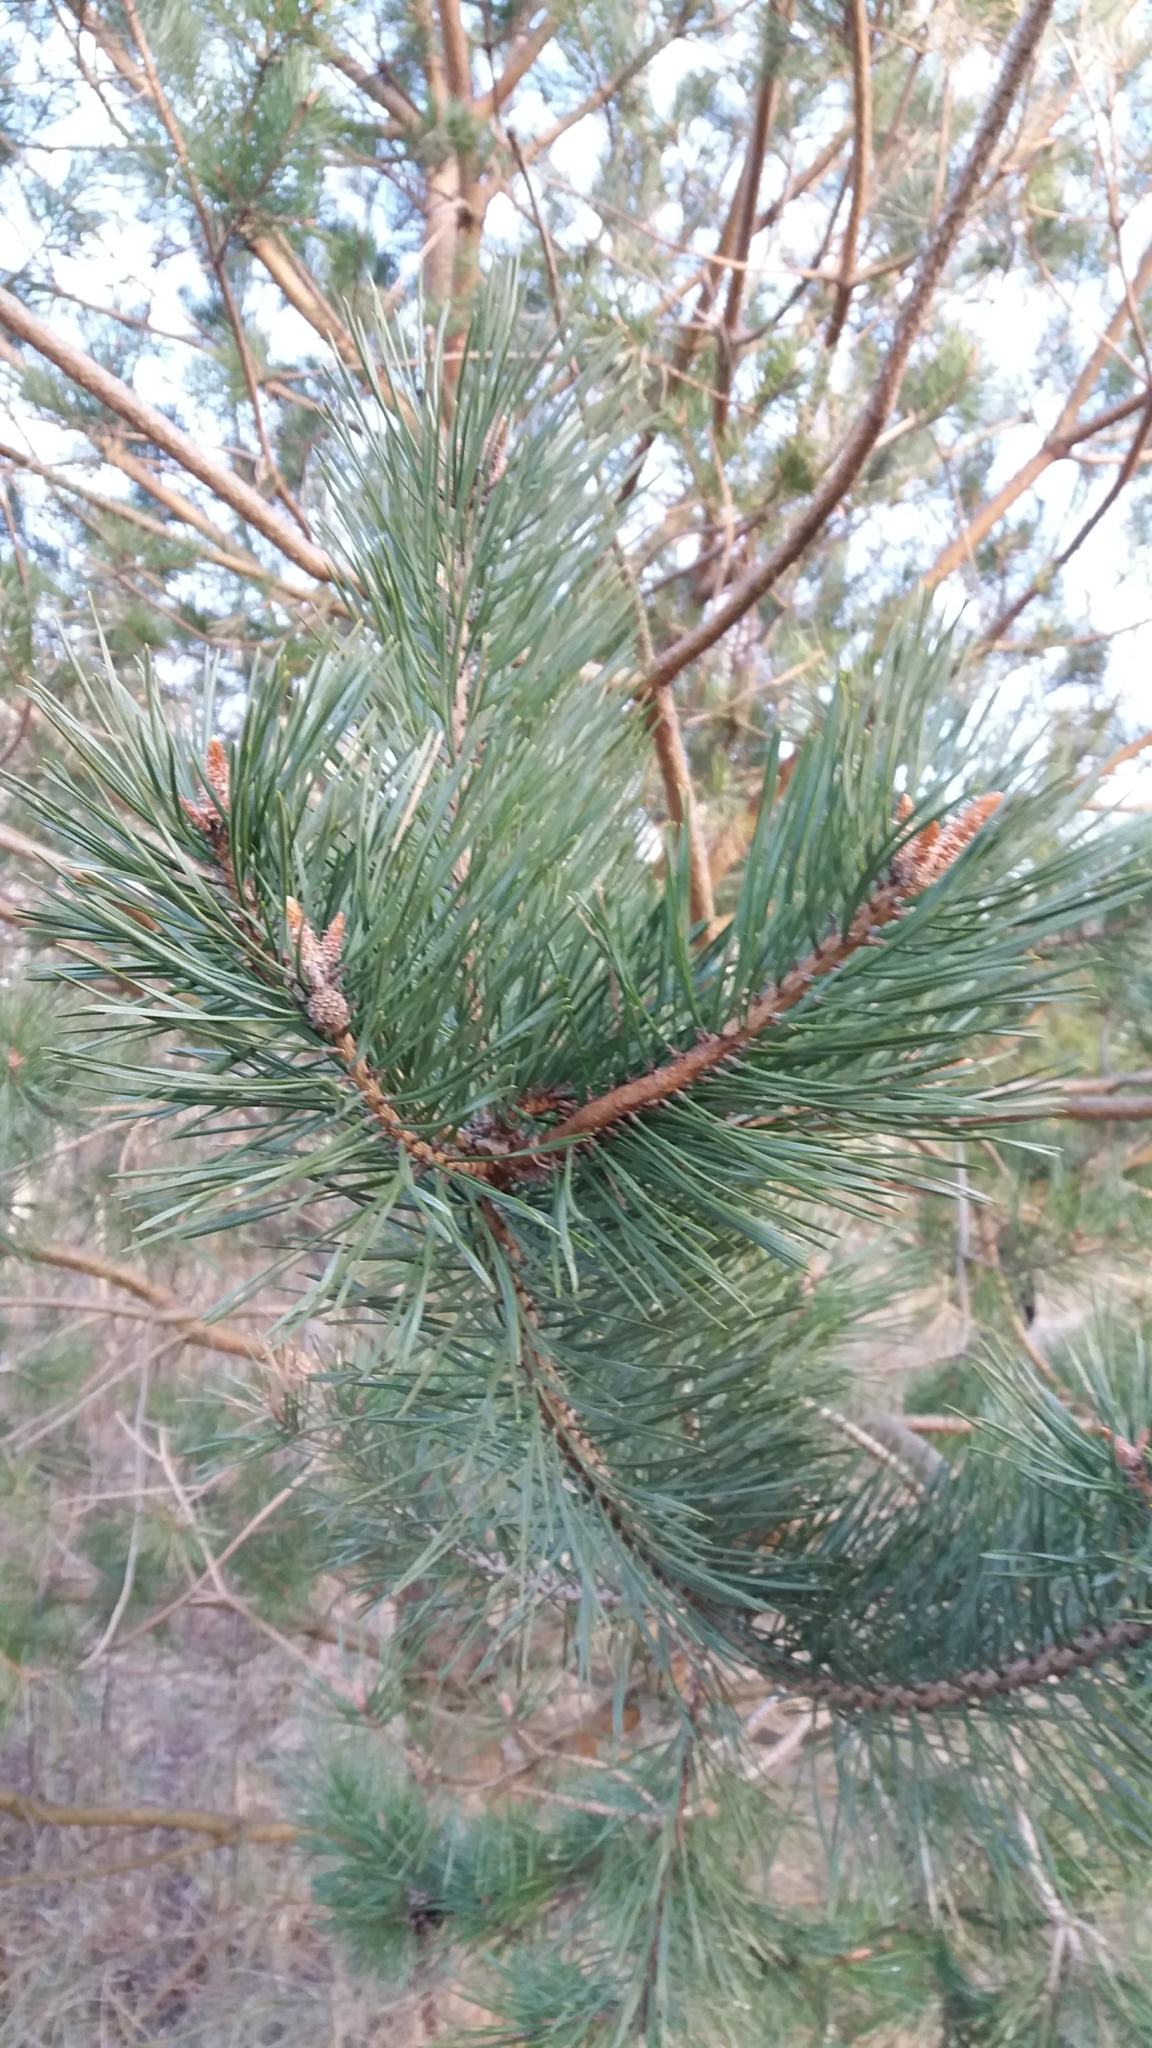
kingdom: Plantae
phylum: Tracheophyta
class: Pinopsida
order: Pinales
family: Pinaceae
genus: Pinus
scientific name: Pinus sylvestris
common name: Scots pine
